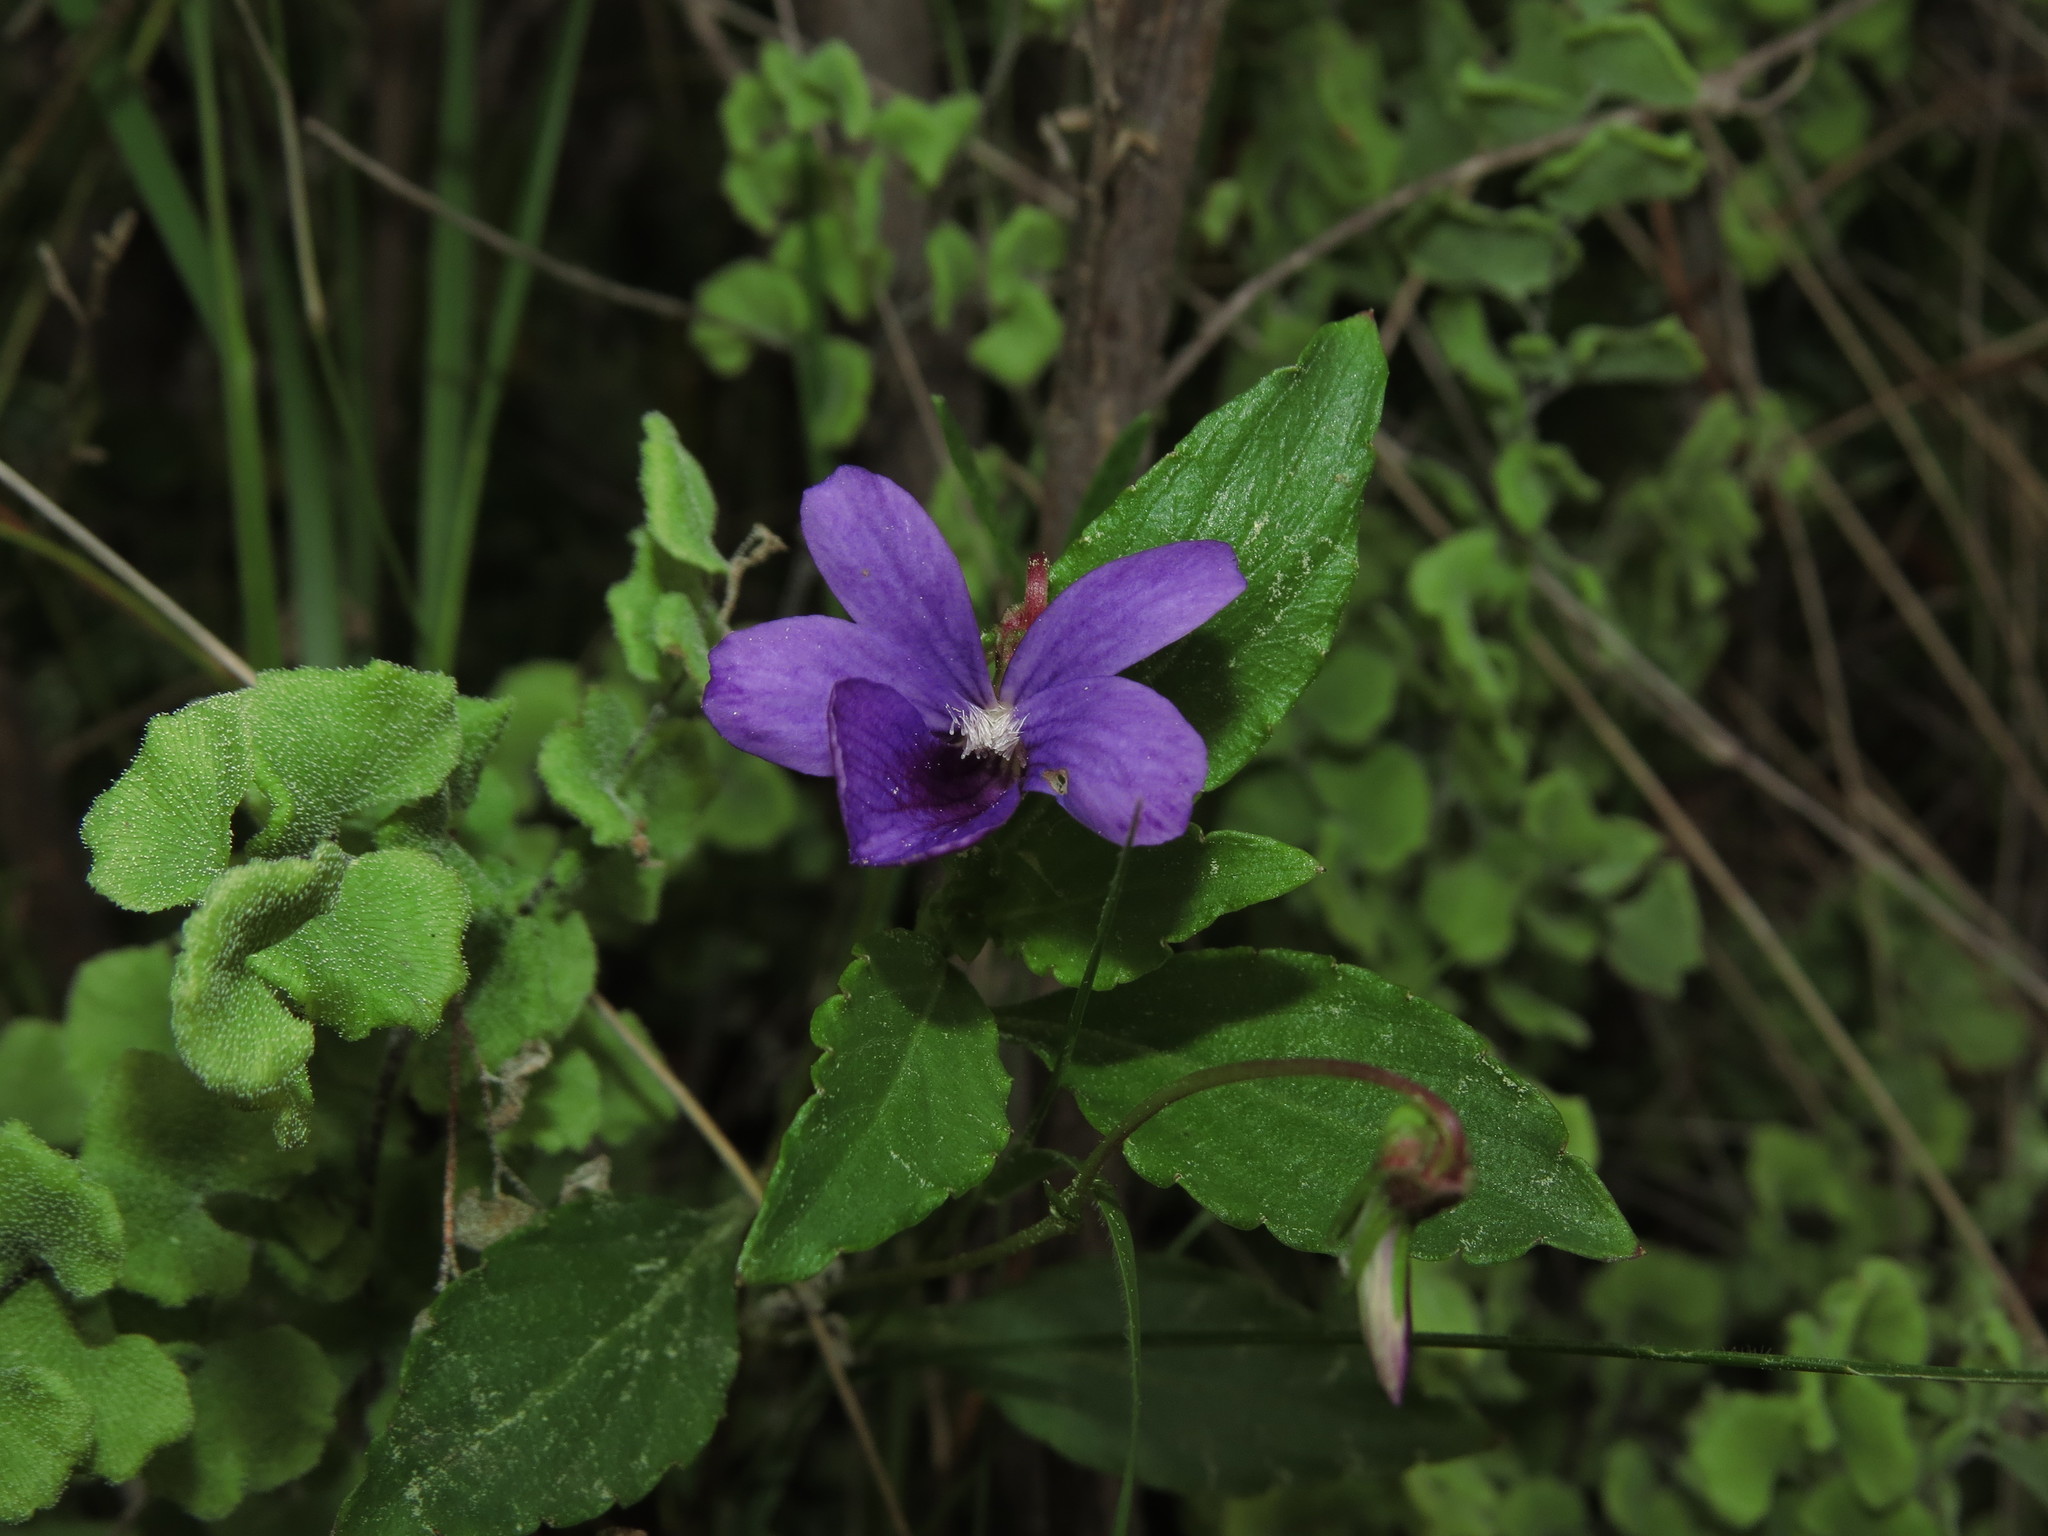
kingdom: Plantae
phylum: Tracheophyta
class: Magnoliopsida
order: Malpighiales
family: Violaceae
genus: Viola
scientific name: Viola portalesia
